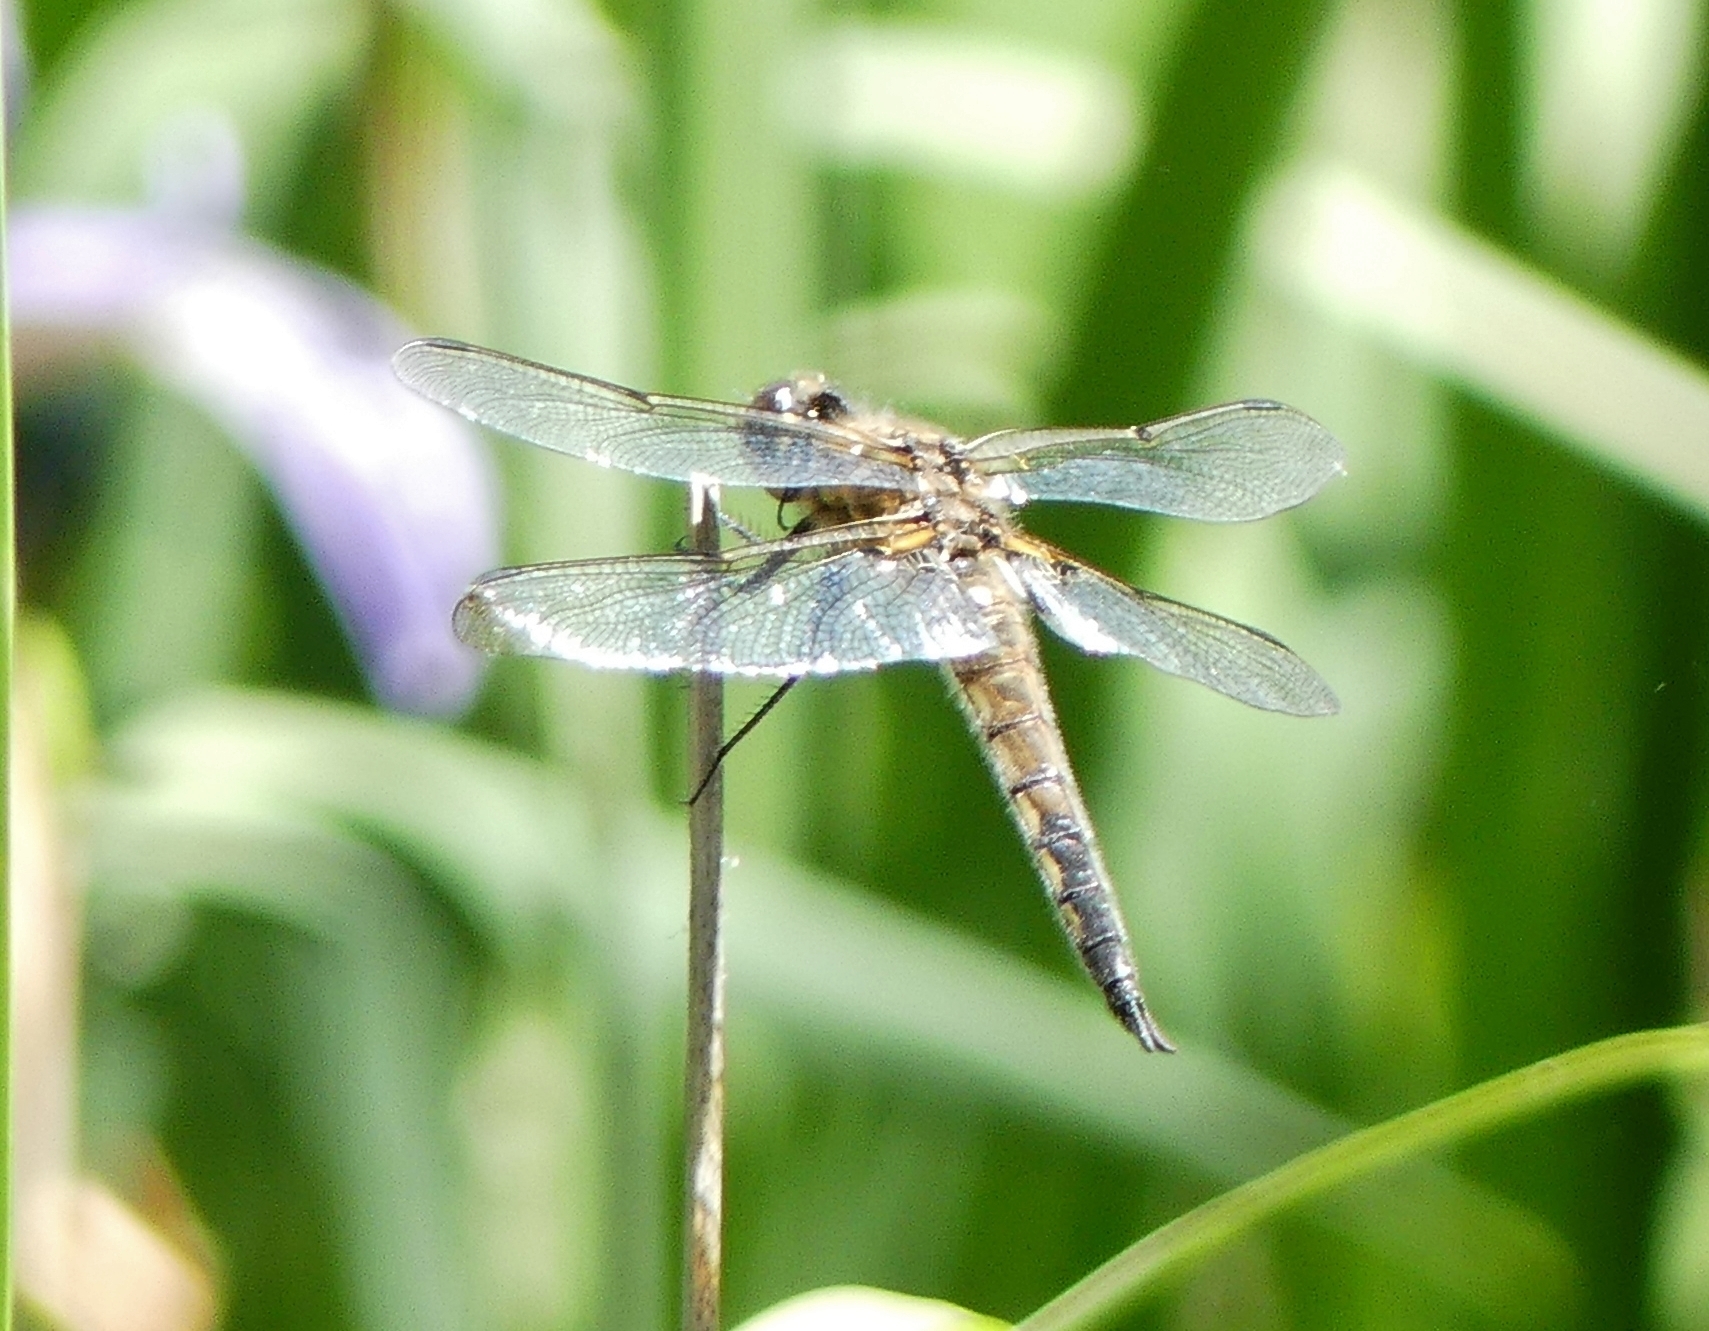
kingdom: Animalia
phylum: Arthropoda
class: Insecta
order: Odonata
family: Libellulidae
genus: Libellula
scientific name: Libellula quadrimaculata
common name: Four-spotted chaser
